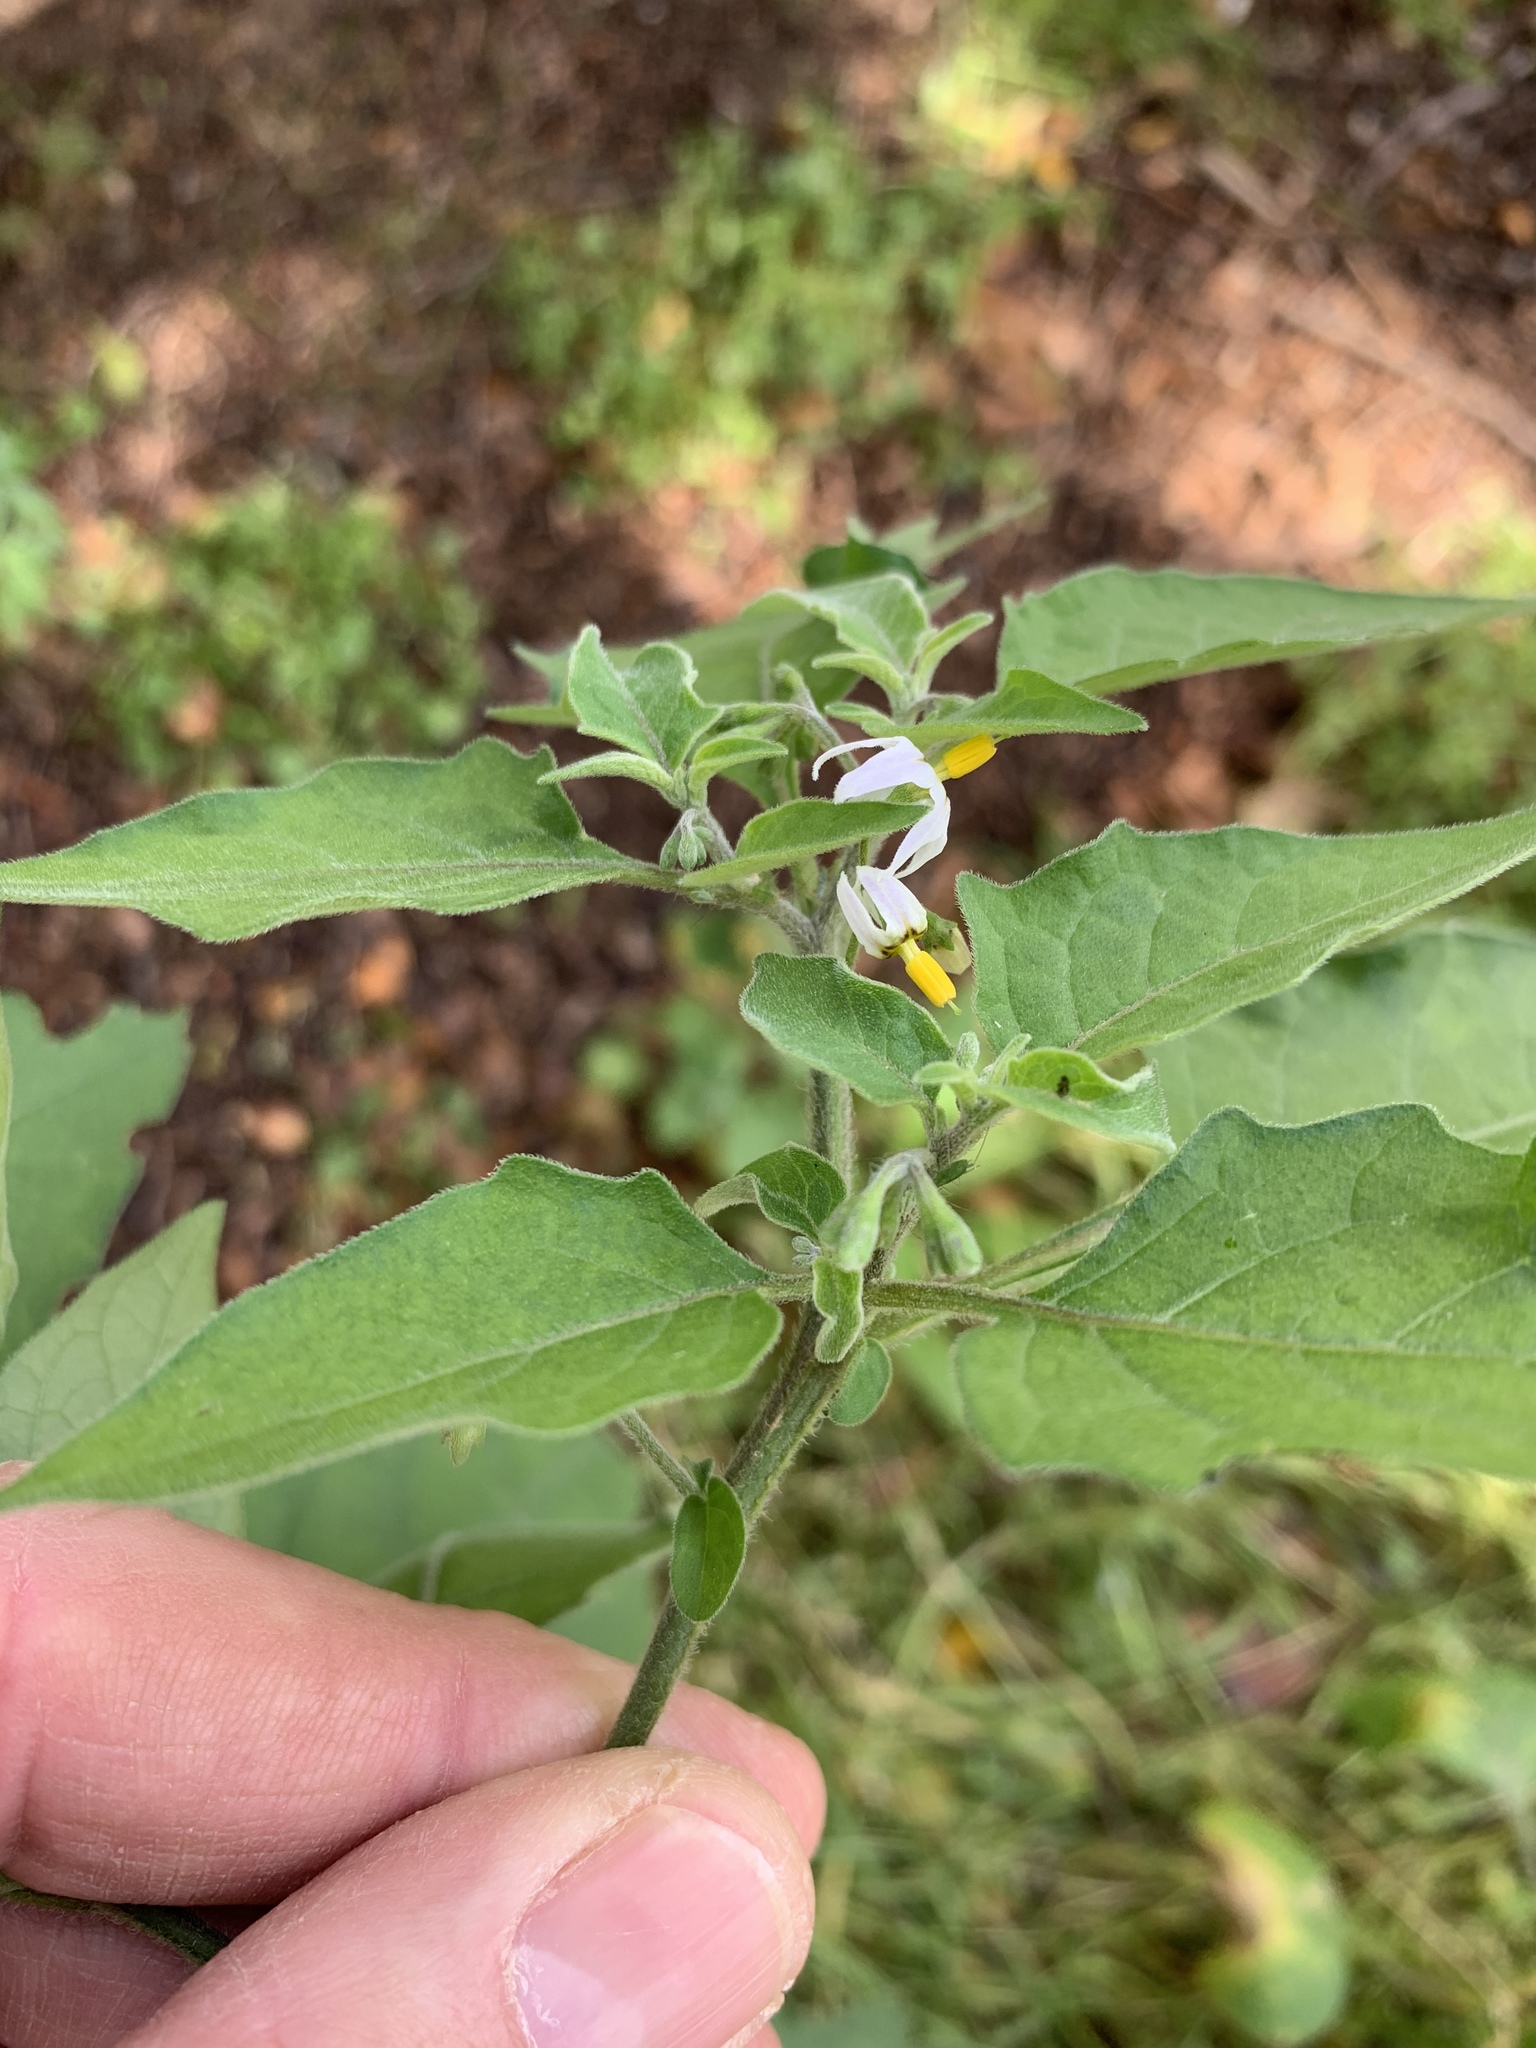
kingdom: Plantae
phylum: Tracheophyta
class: Magnoliopsida
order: Solanales
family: Solanaceae
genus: Solanum
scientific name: Solanum chenopodioides
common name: Tall nightshade
